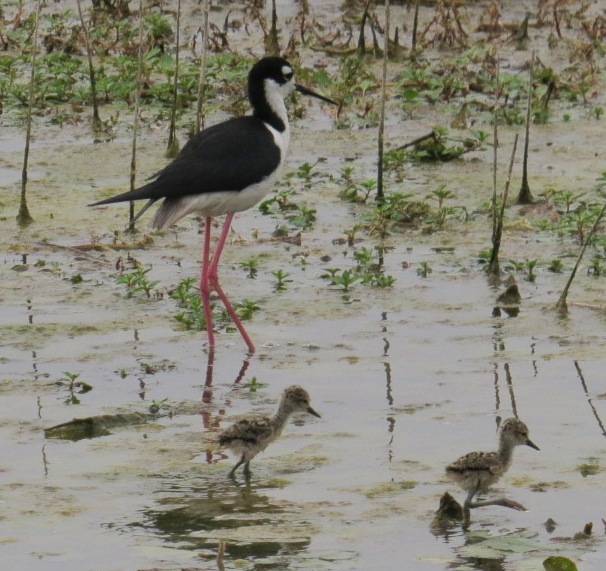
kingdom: Animalia
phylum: Chordata
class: Aves
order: Charadriiformes
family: Recurvirostridae
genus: Himantopus
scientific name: Himantopus mexicanus
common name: Black-necked stilt
